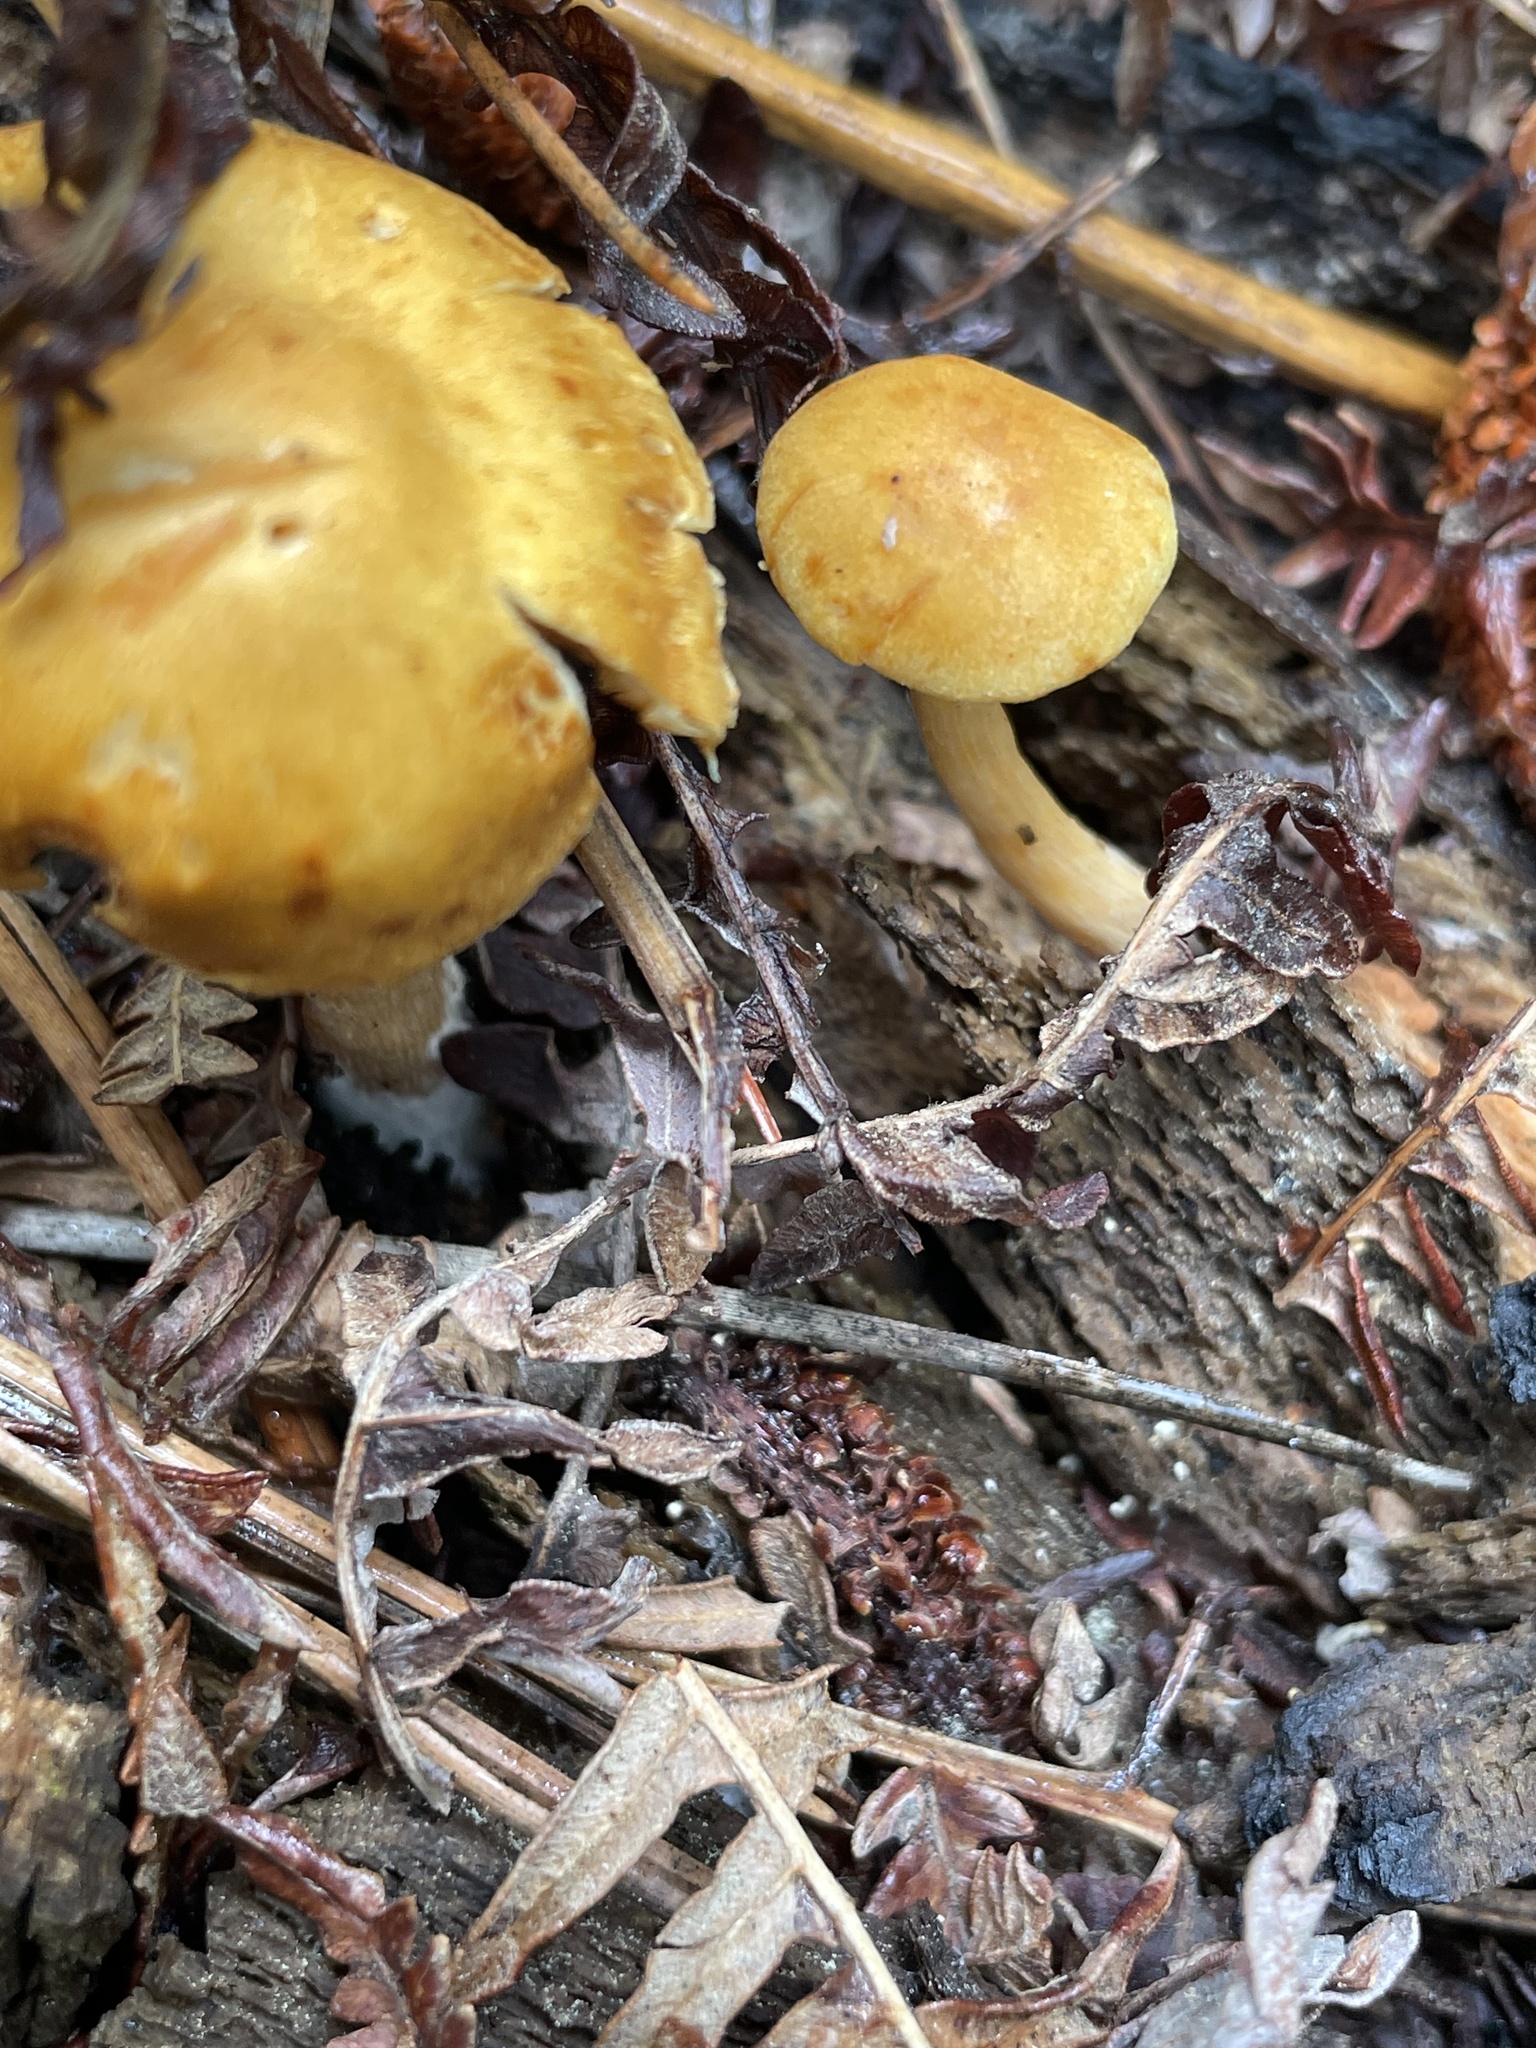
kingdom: Fungi
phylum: Basidiomycota
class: Agaricomycetes
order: Agaricales
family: Hymenogastraceae
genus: Gymnopilus
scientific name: Gymnopilus
